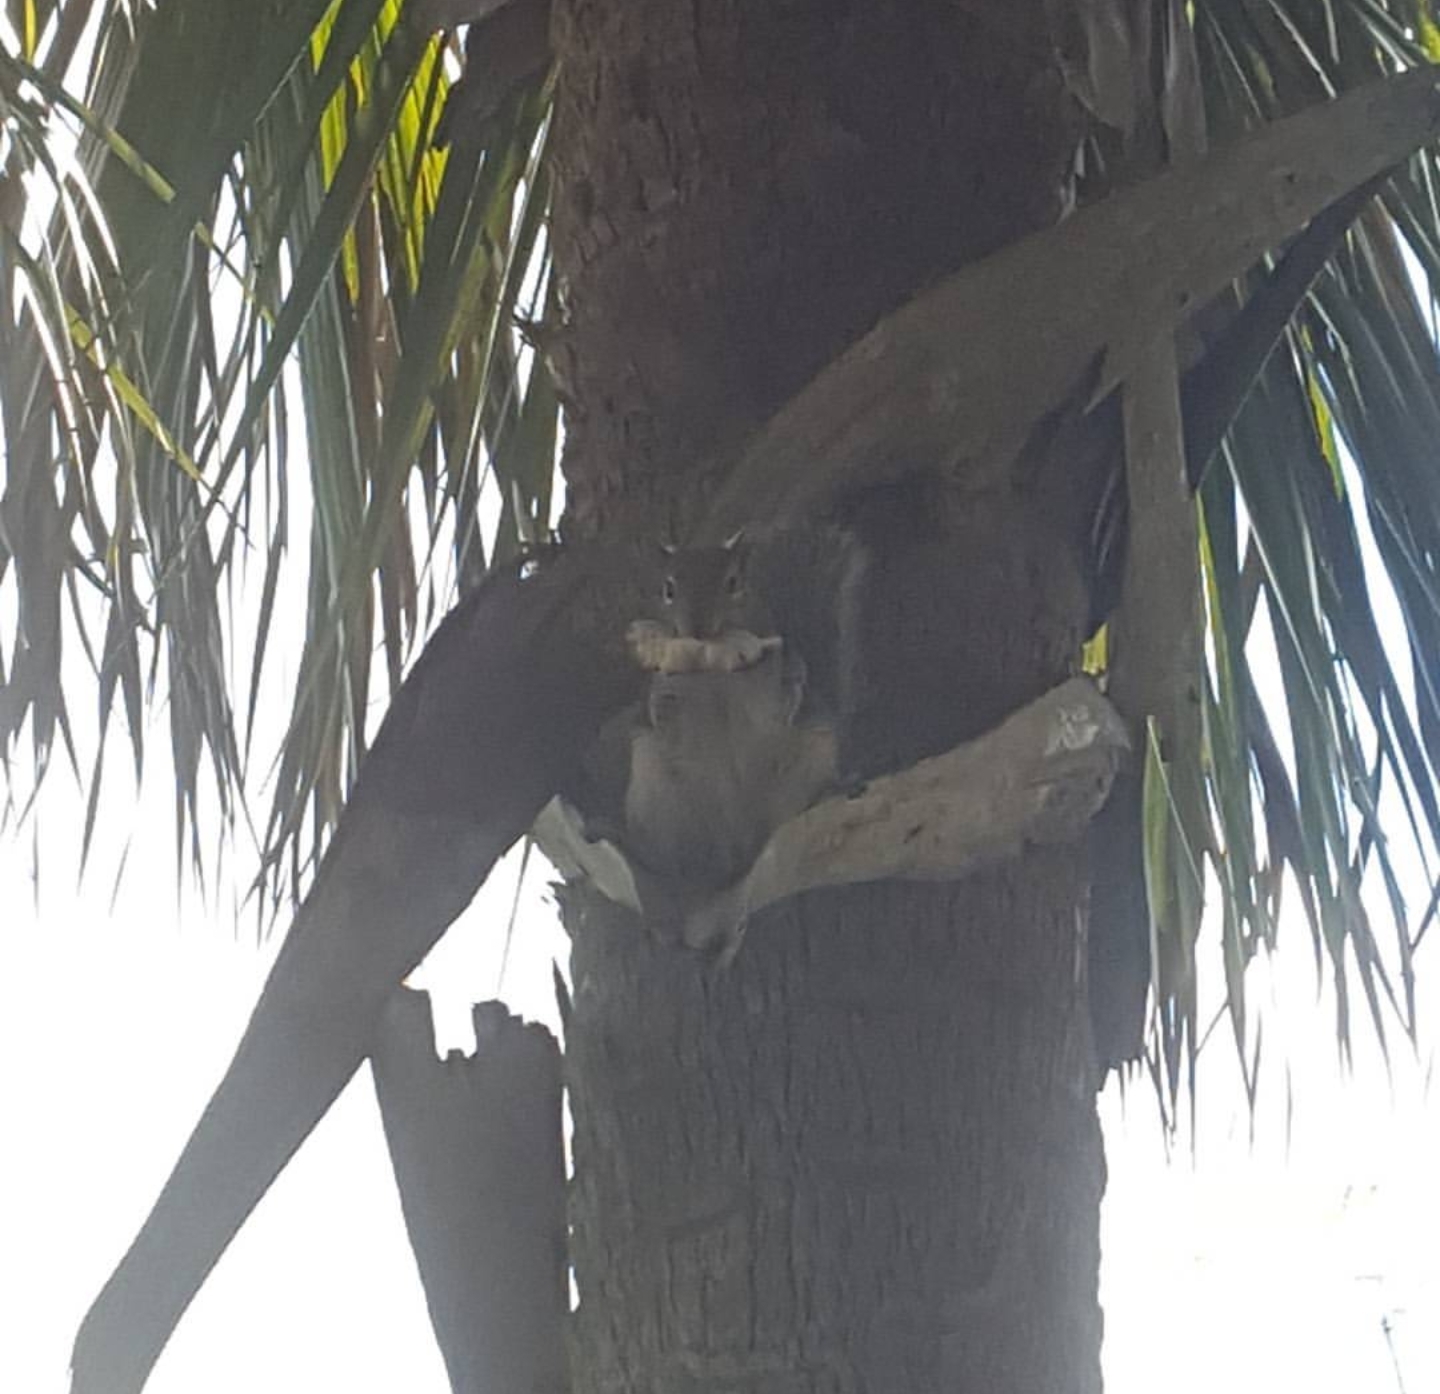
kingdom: Animalia
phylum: Chordata
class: Mammalia
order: Rodentia
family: Sciuridae
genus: Sciurus
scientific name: Sciurus carolinensis
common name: Eastern gray squirrel
